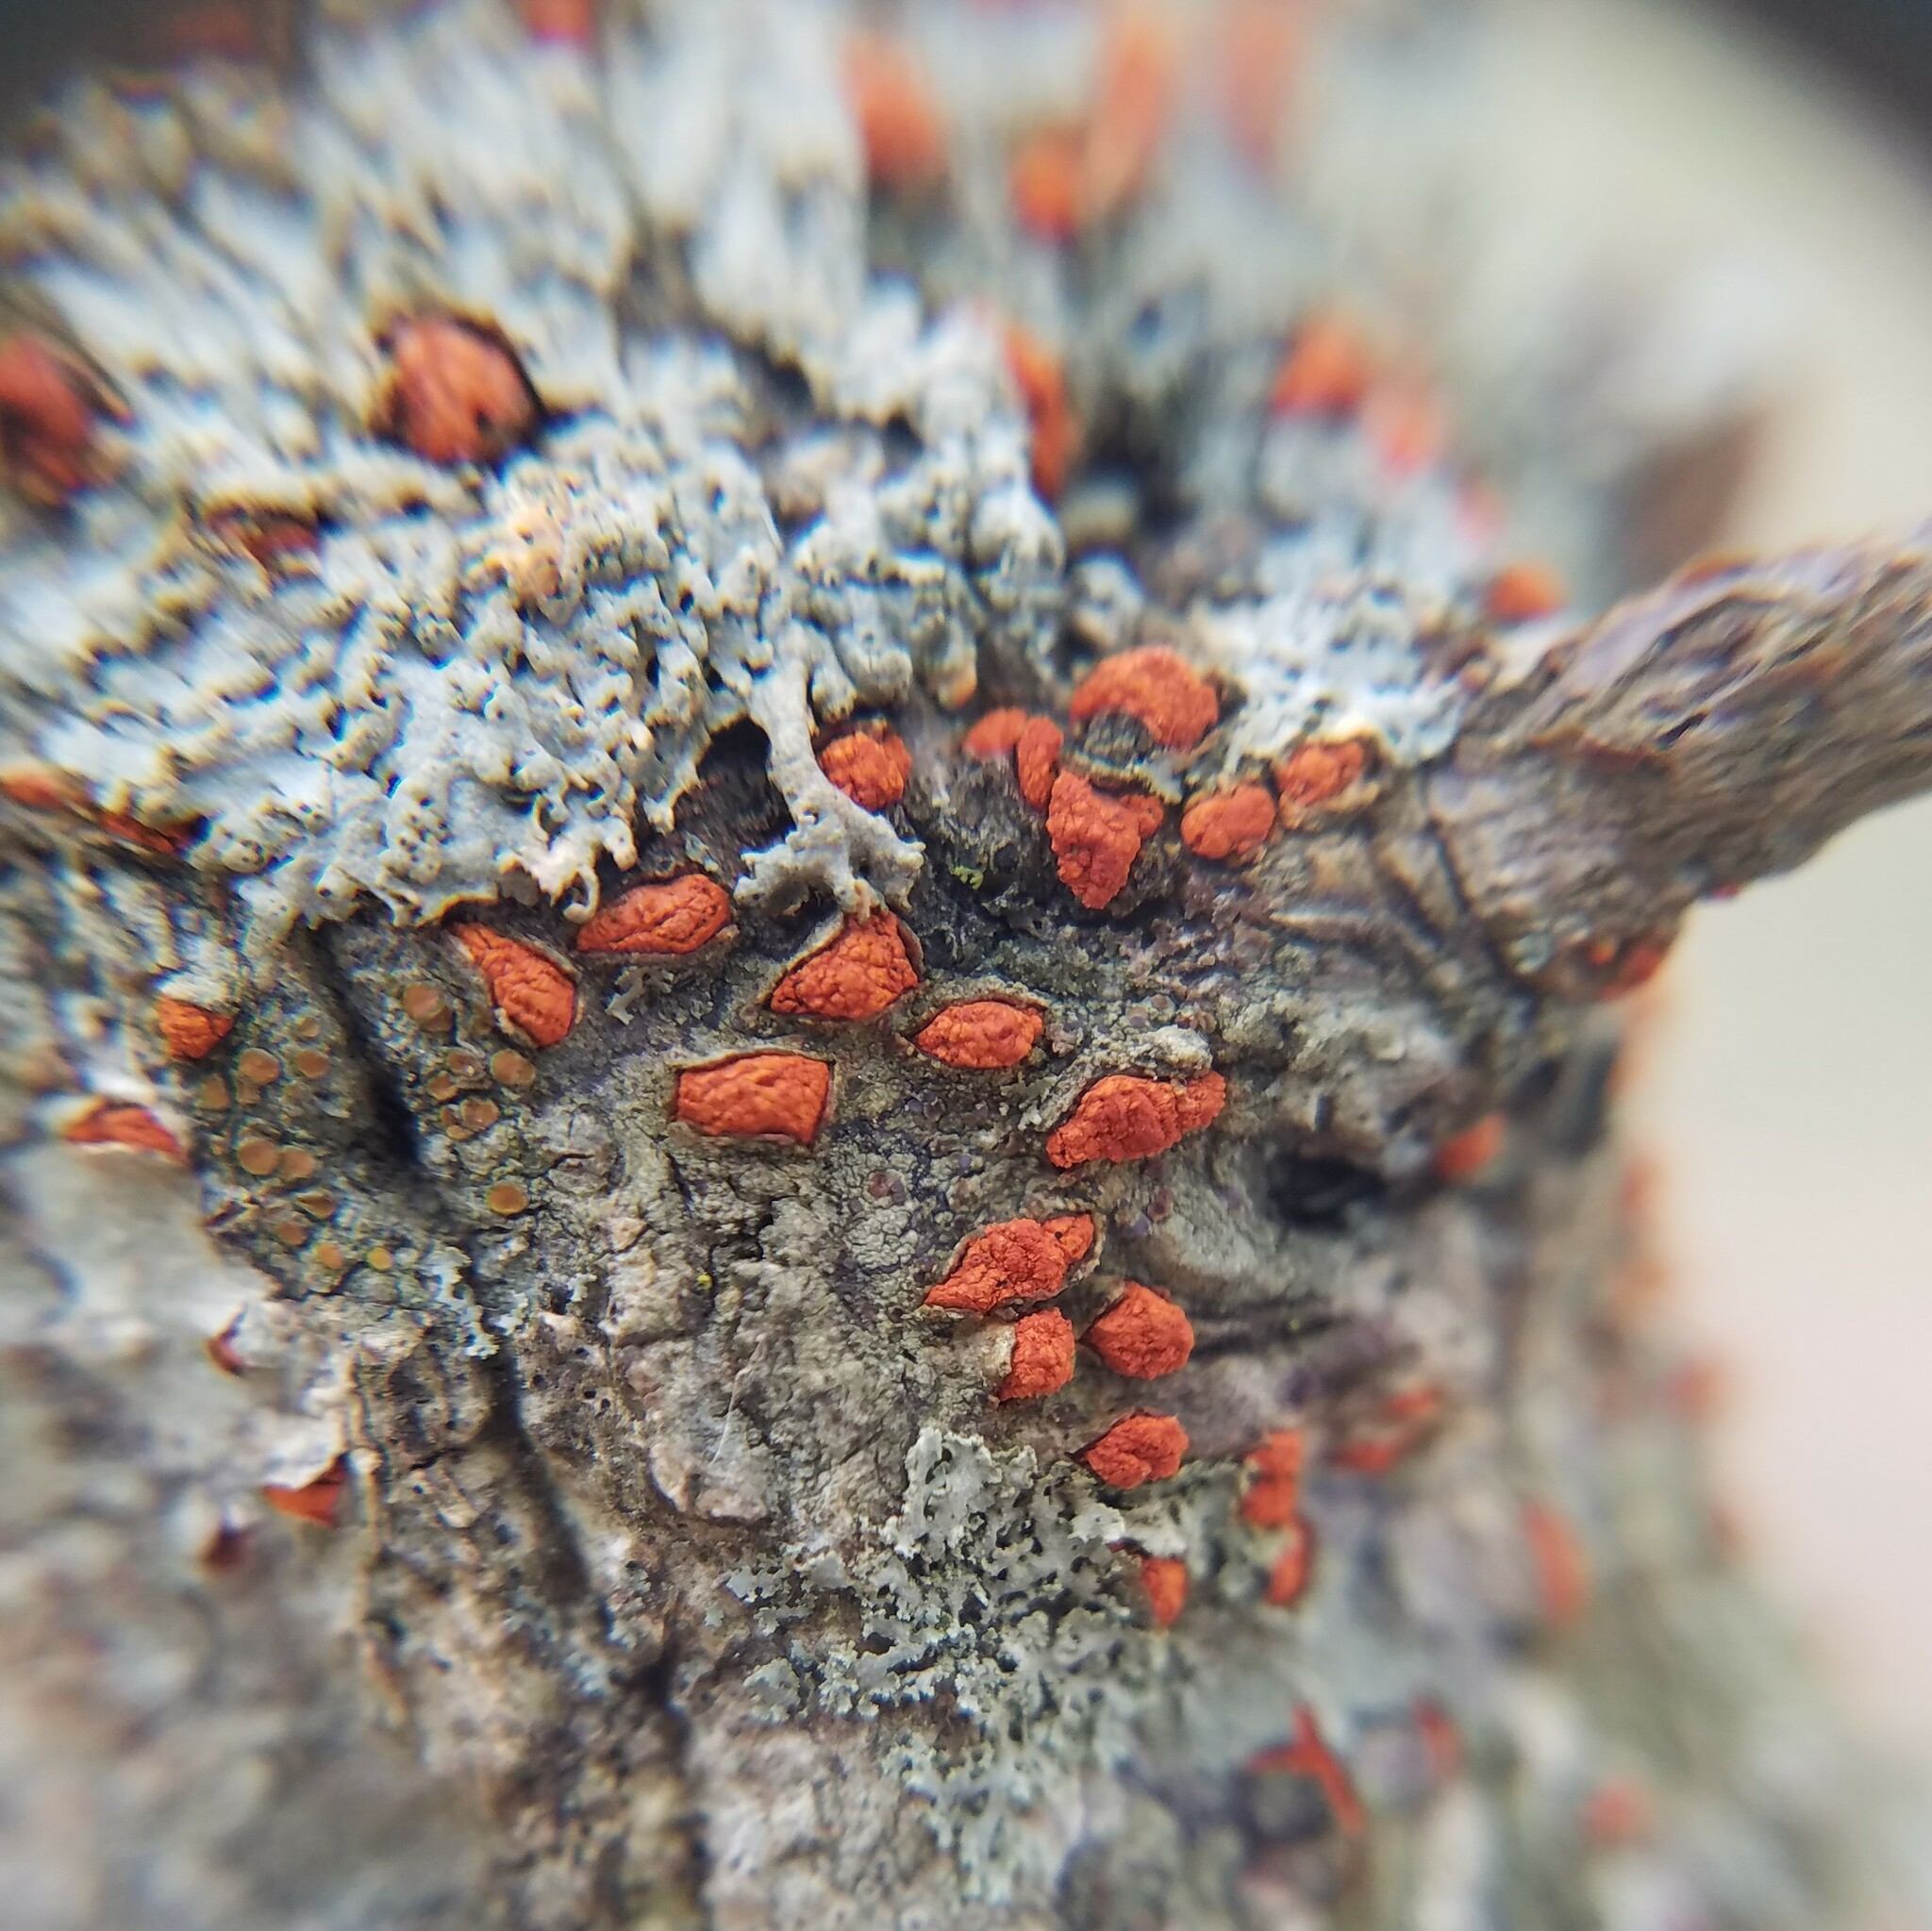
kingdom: Fungi
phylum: Ascomycota
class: Sordariomycetes
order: Diaporthales
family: Cryphonectriaceae
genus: Amphilogia
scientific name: Amphilogia gyrosa
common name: Orange hobnail canker
